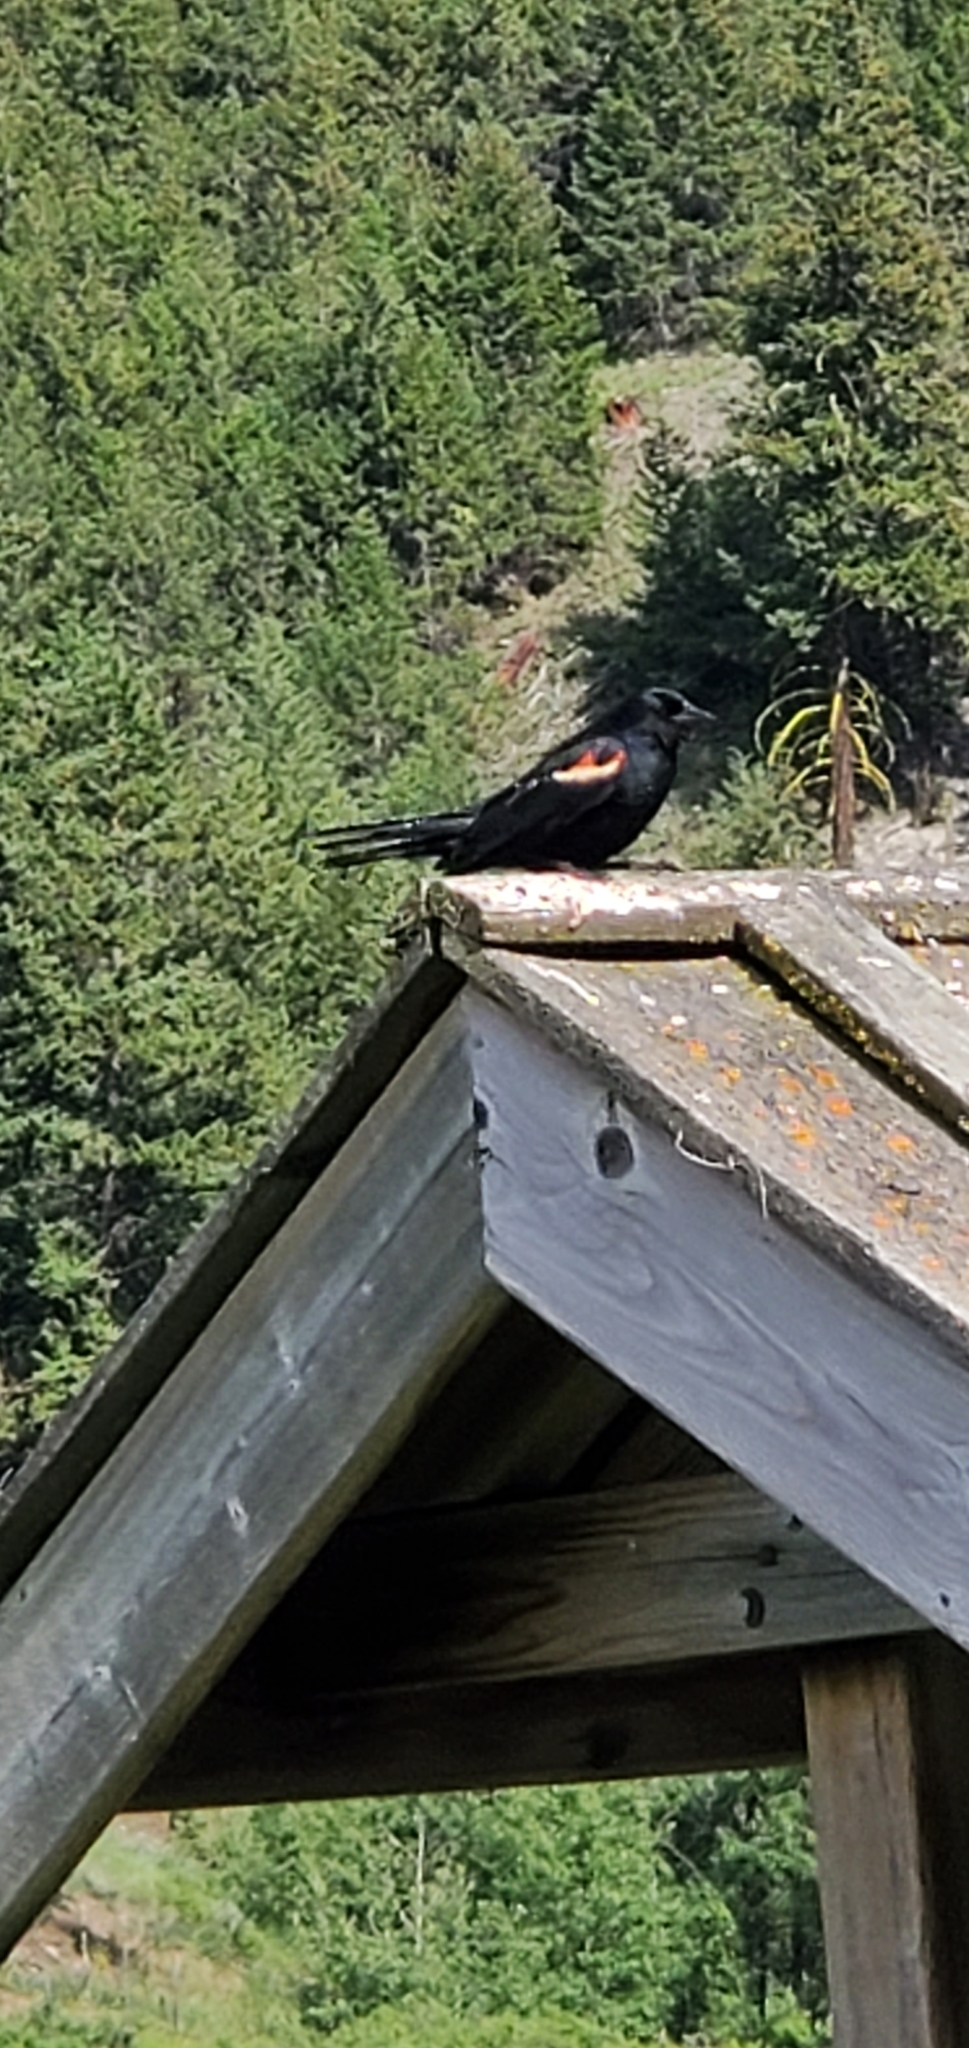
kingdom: Animalia
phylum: Chordata
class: Aves
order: Passeriformes
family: Icteridae
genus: Agelaius
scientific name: Agelaius phoeniceus
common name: Red-winged blackbird
